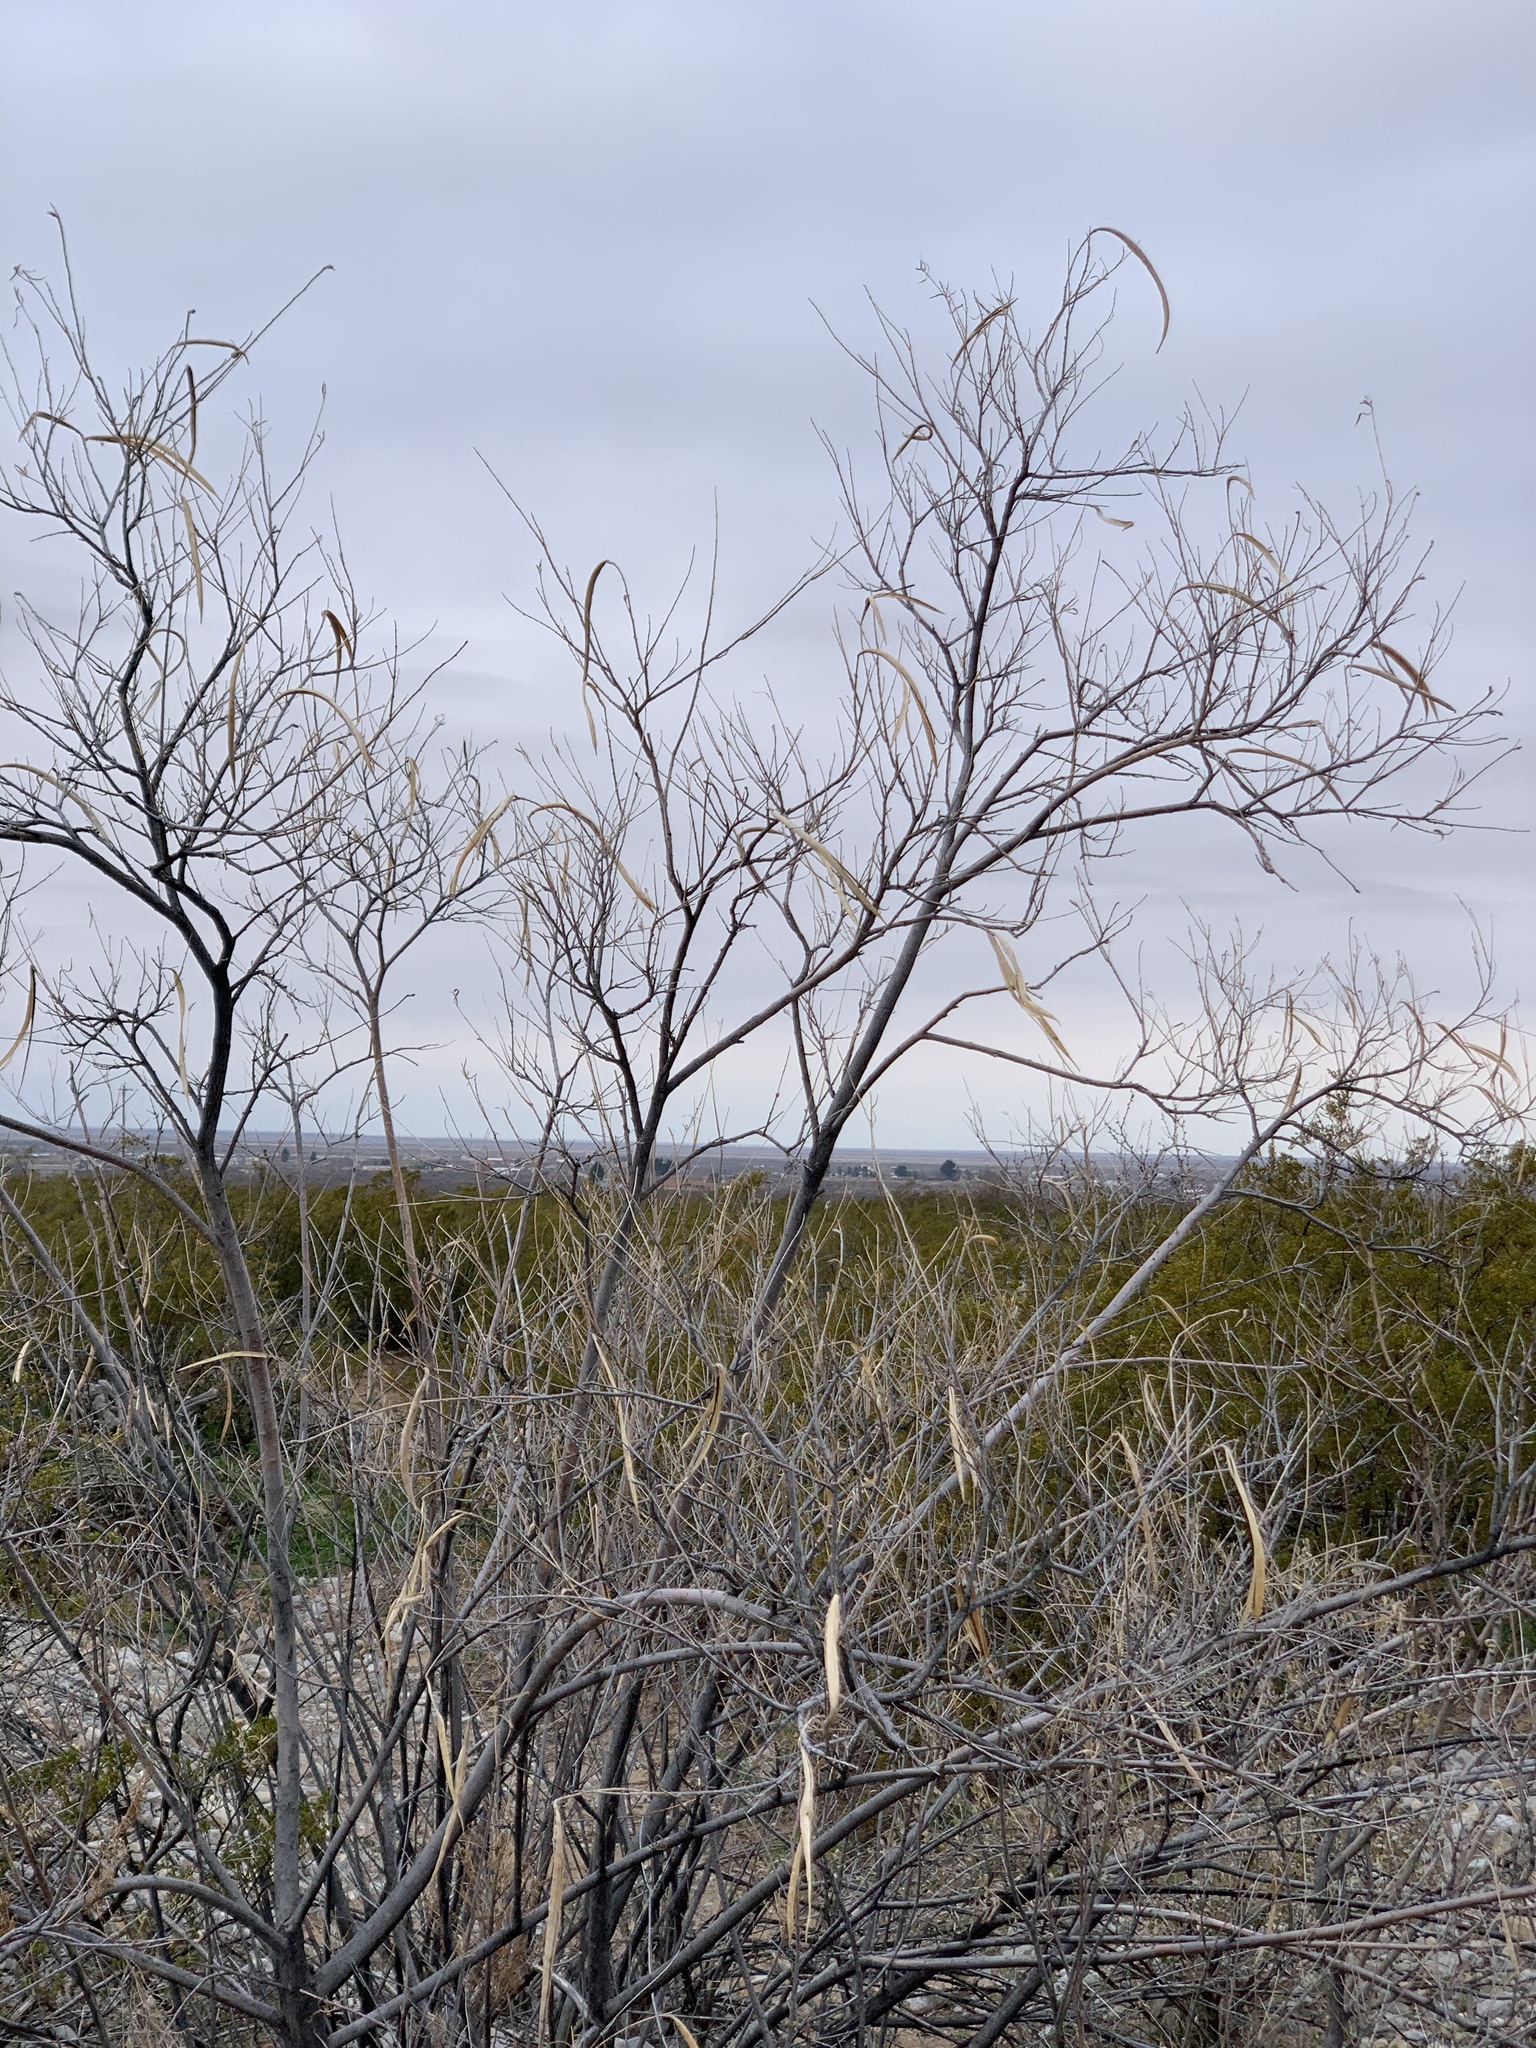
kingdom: Plantae
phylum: Tracheophyta
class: Magnoliopsida
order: Lamiales
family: Bignoniaceae
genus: Chilopsis
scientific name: Chilopsis linearis
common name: Desert-willow
